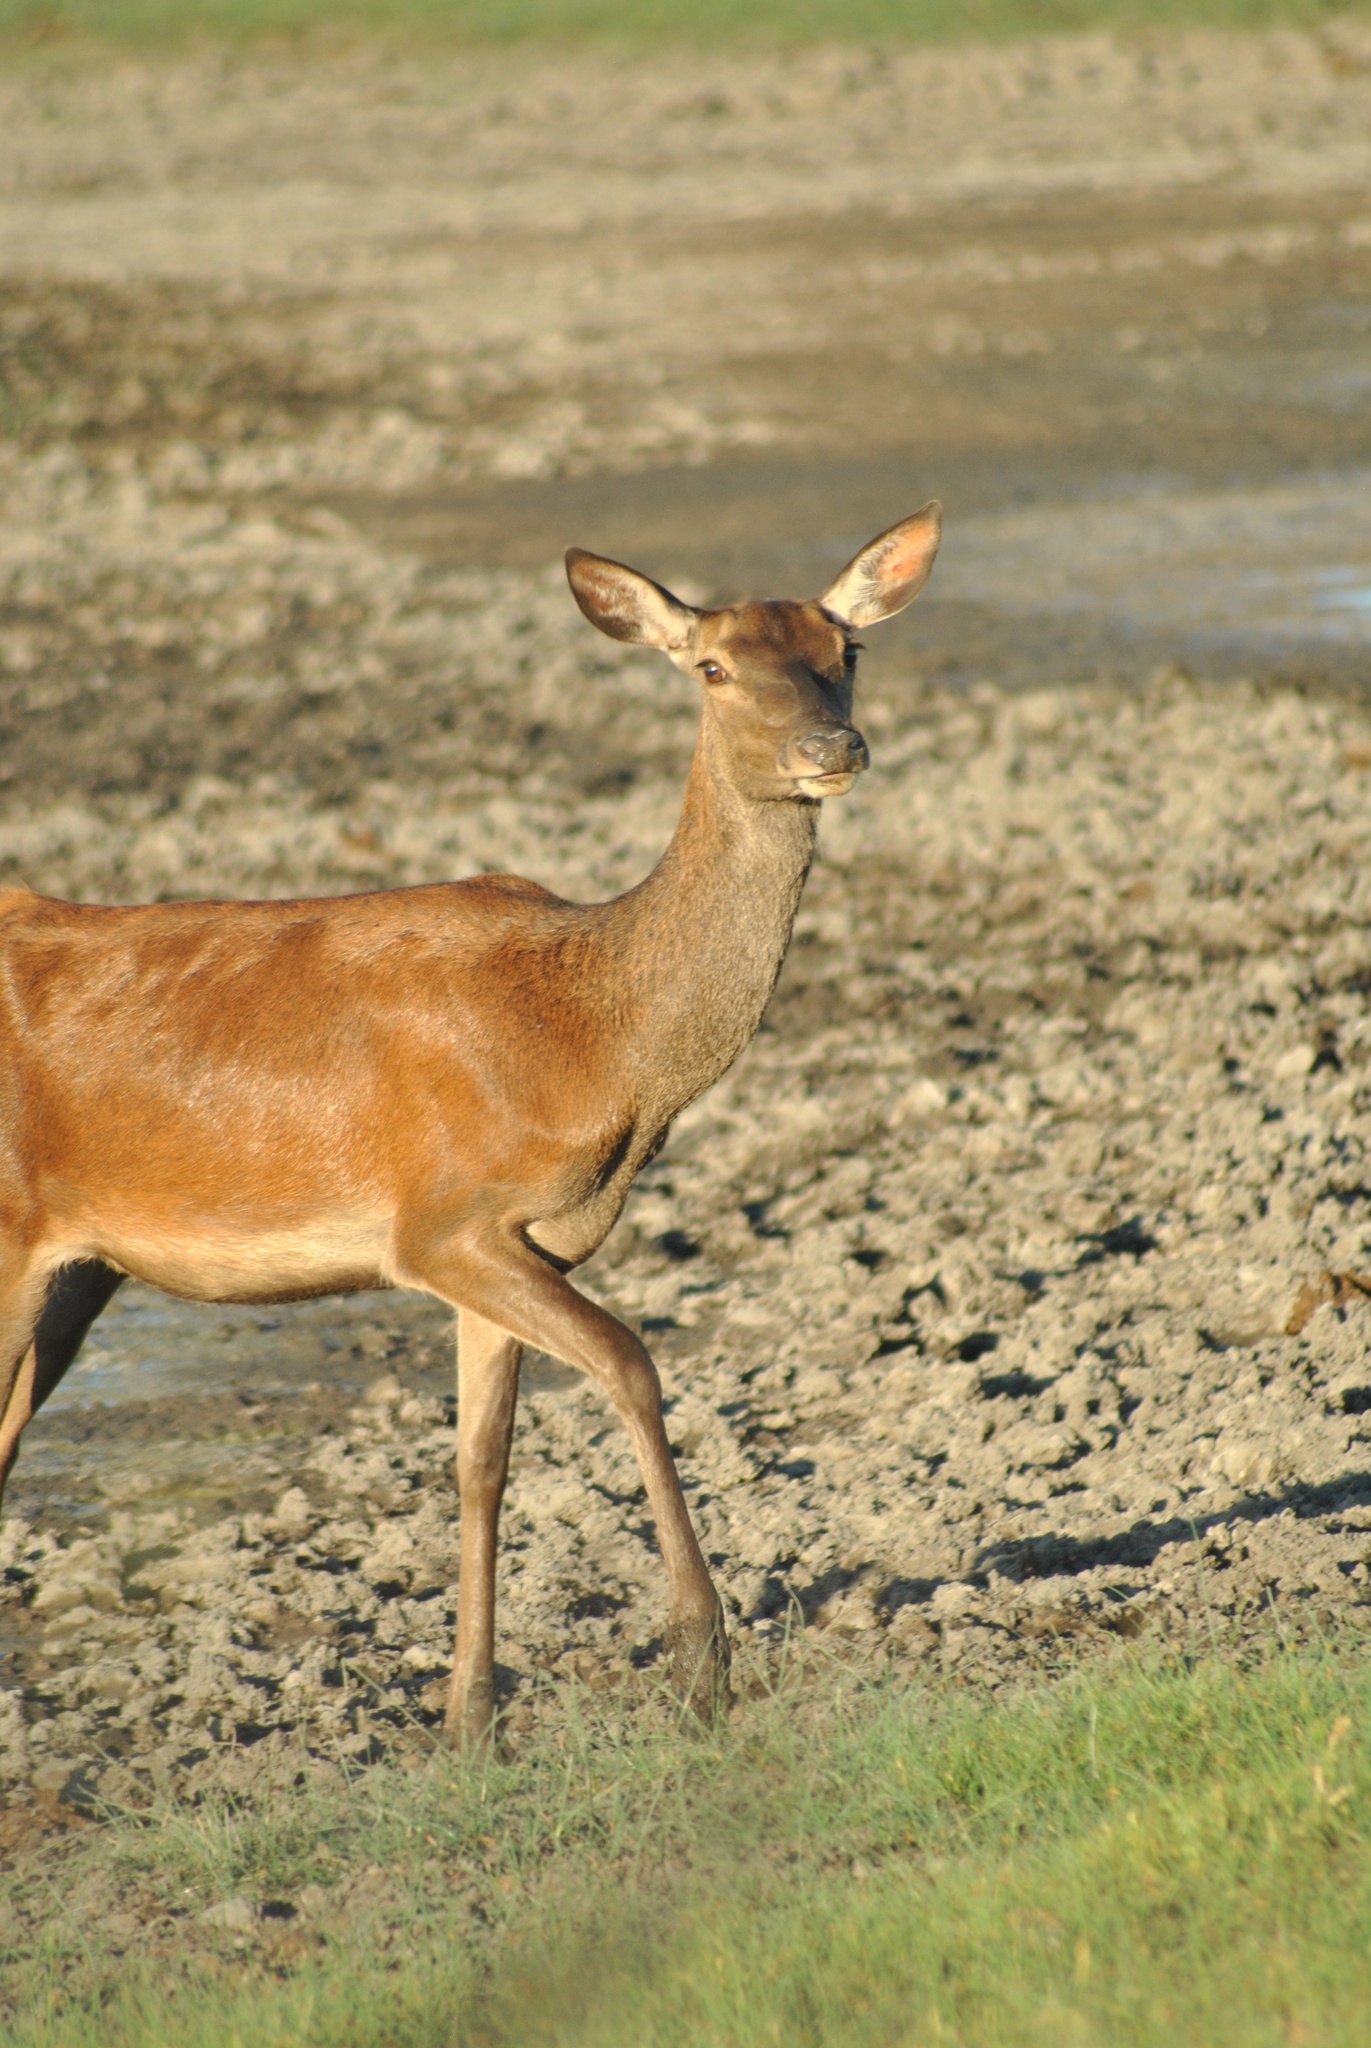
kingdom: Animalia
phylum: Chordata
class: Mammalia
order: Artiodactyla
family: Cervidae
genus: Cervus
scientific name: Cervus elaphus
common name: Red deer
